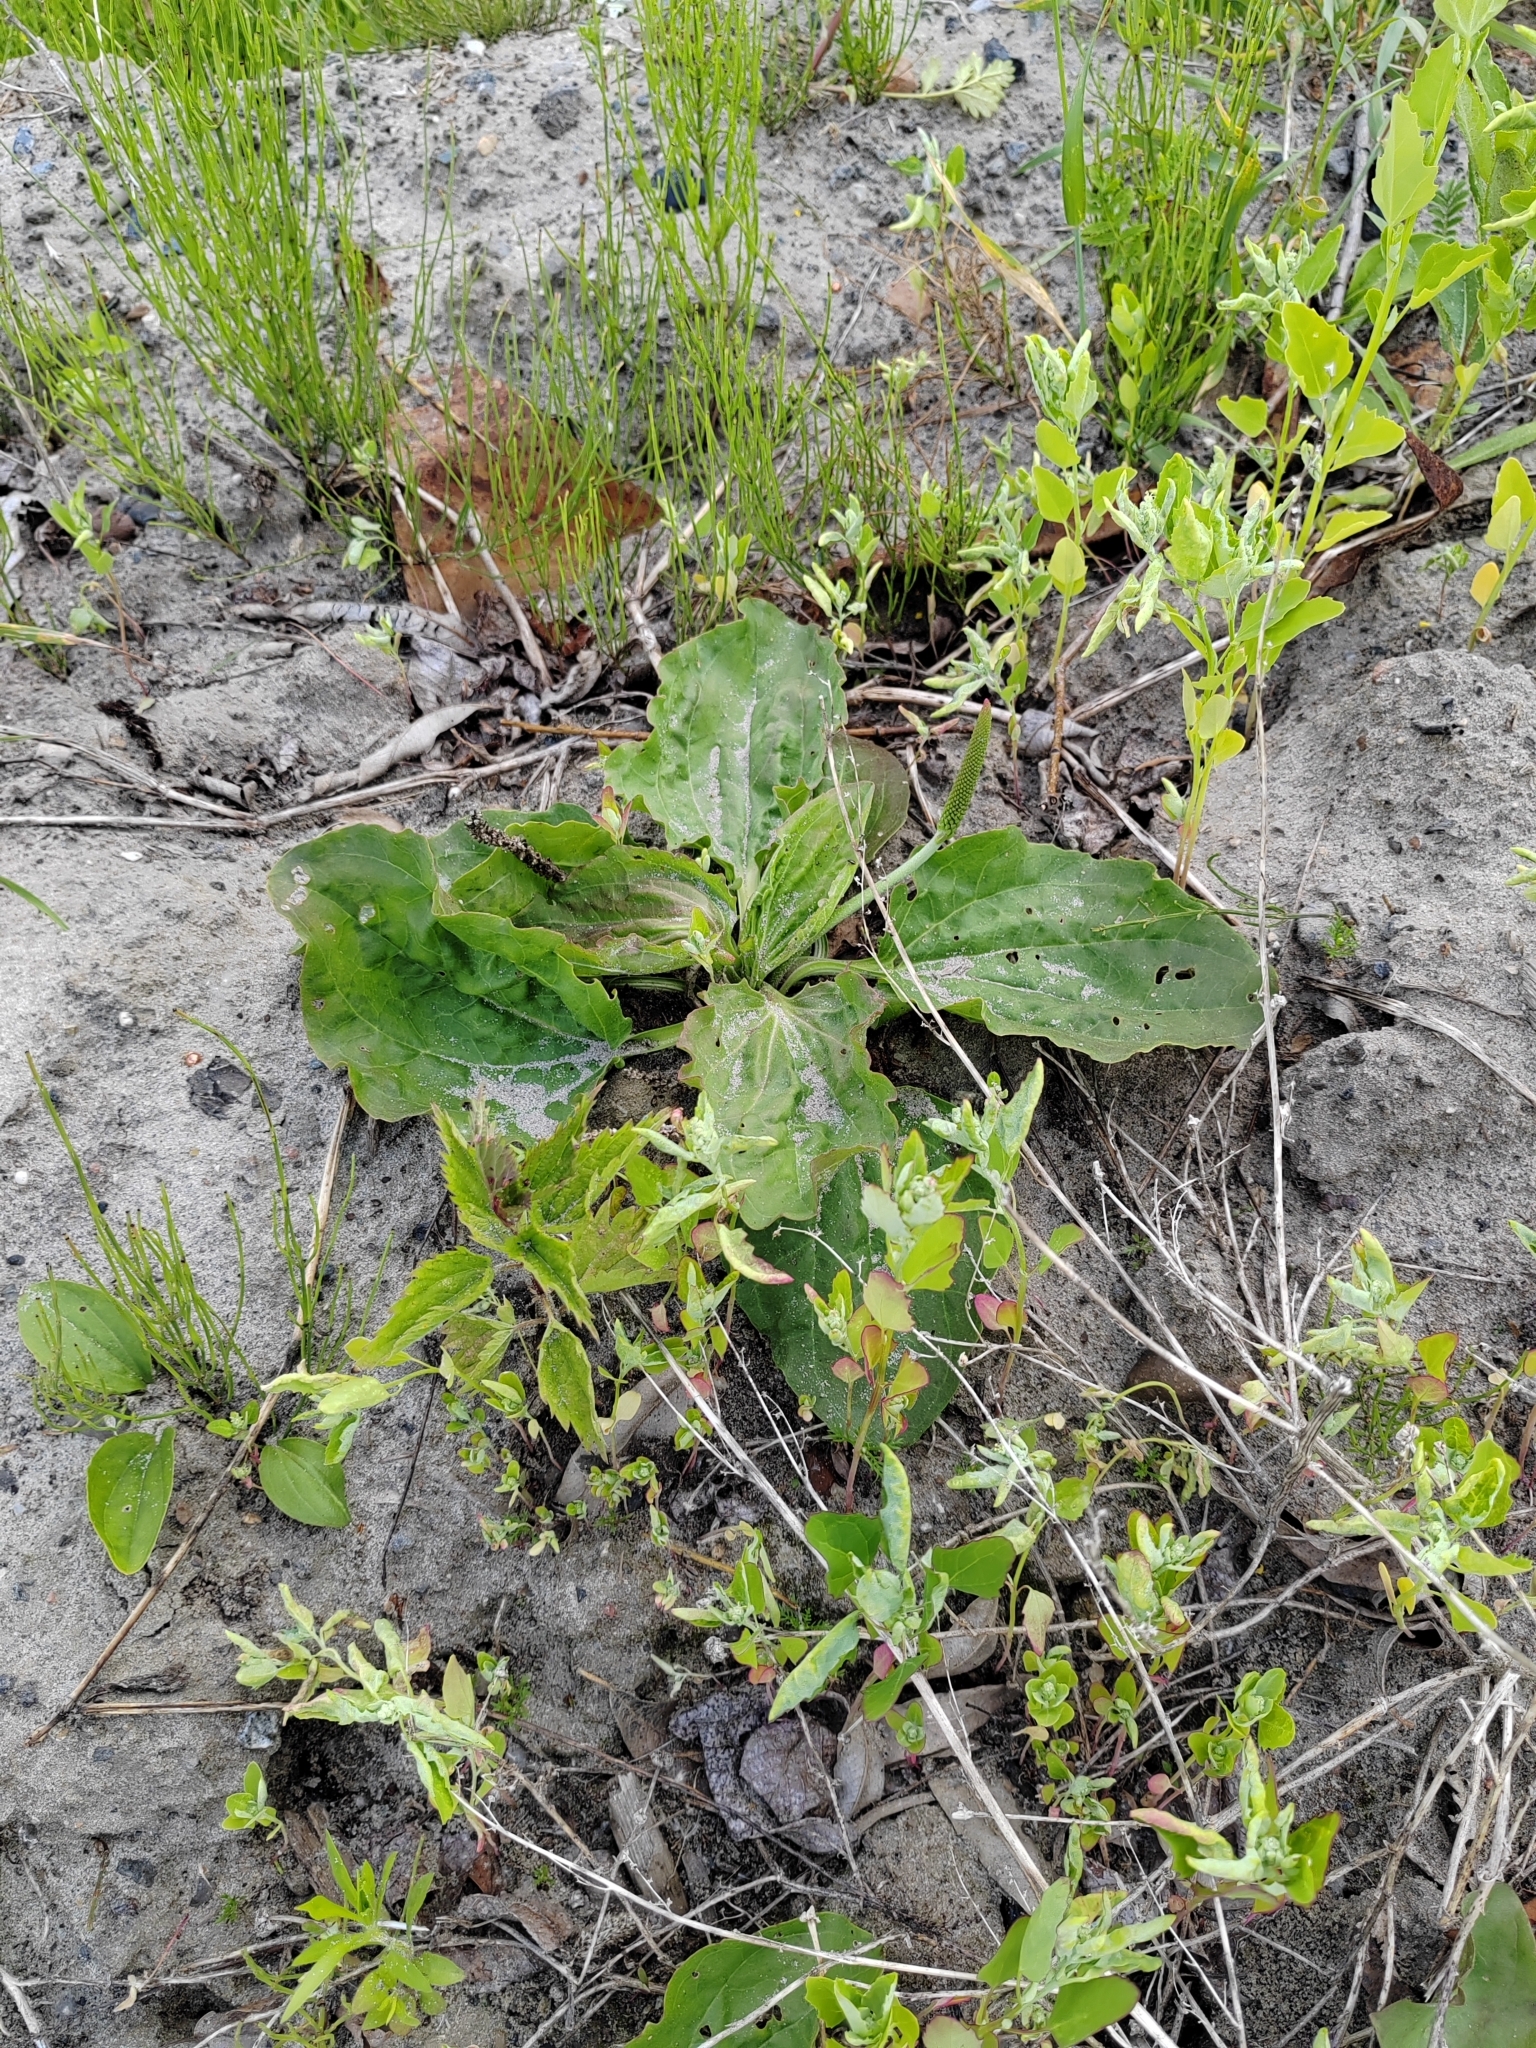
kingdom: Plantae
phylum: Tracheophyta
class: Magnoliopsida
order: Lamiales
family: Plantaginaceae
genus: Plantago
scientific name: Plantago major
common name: Common plantain
